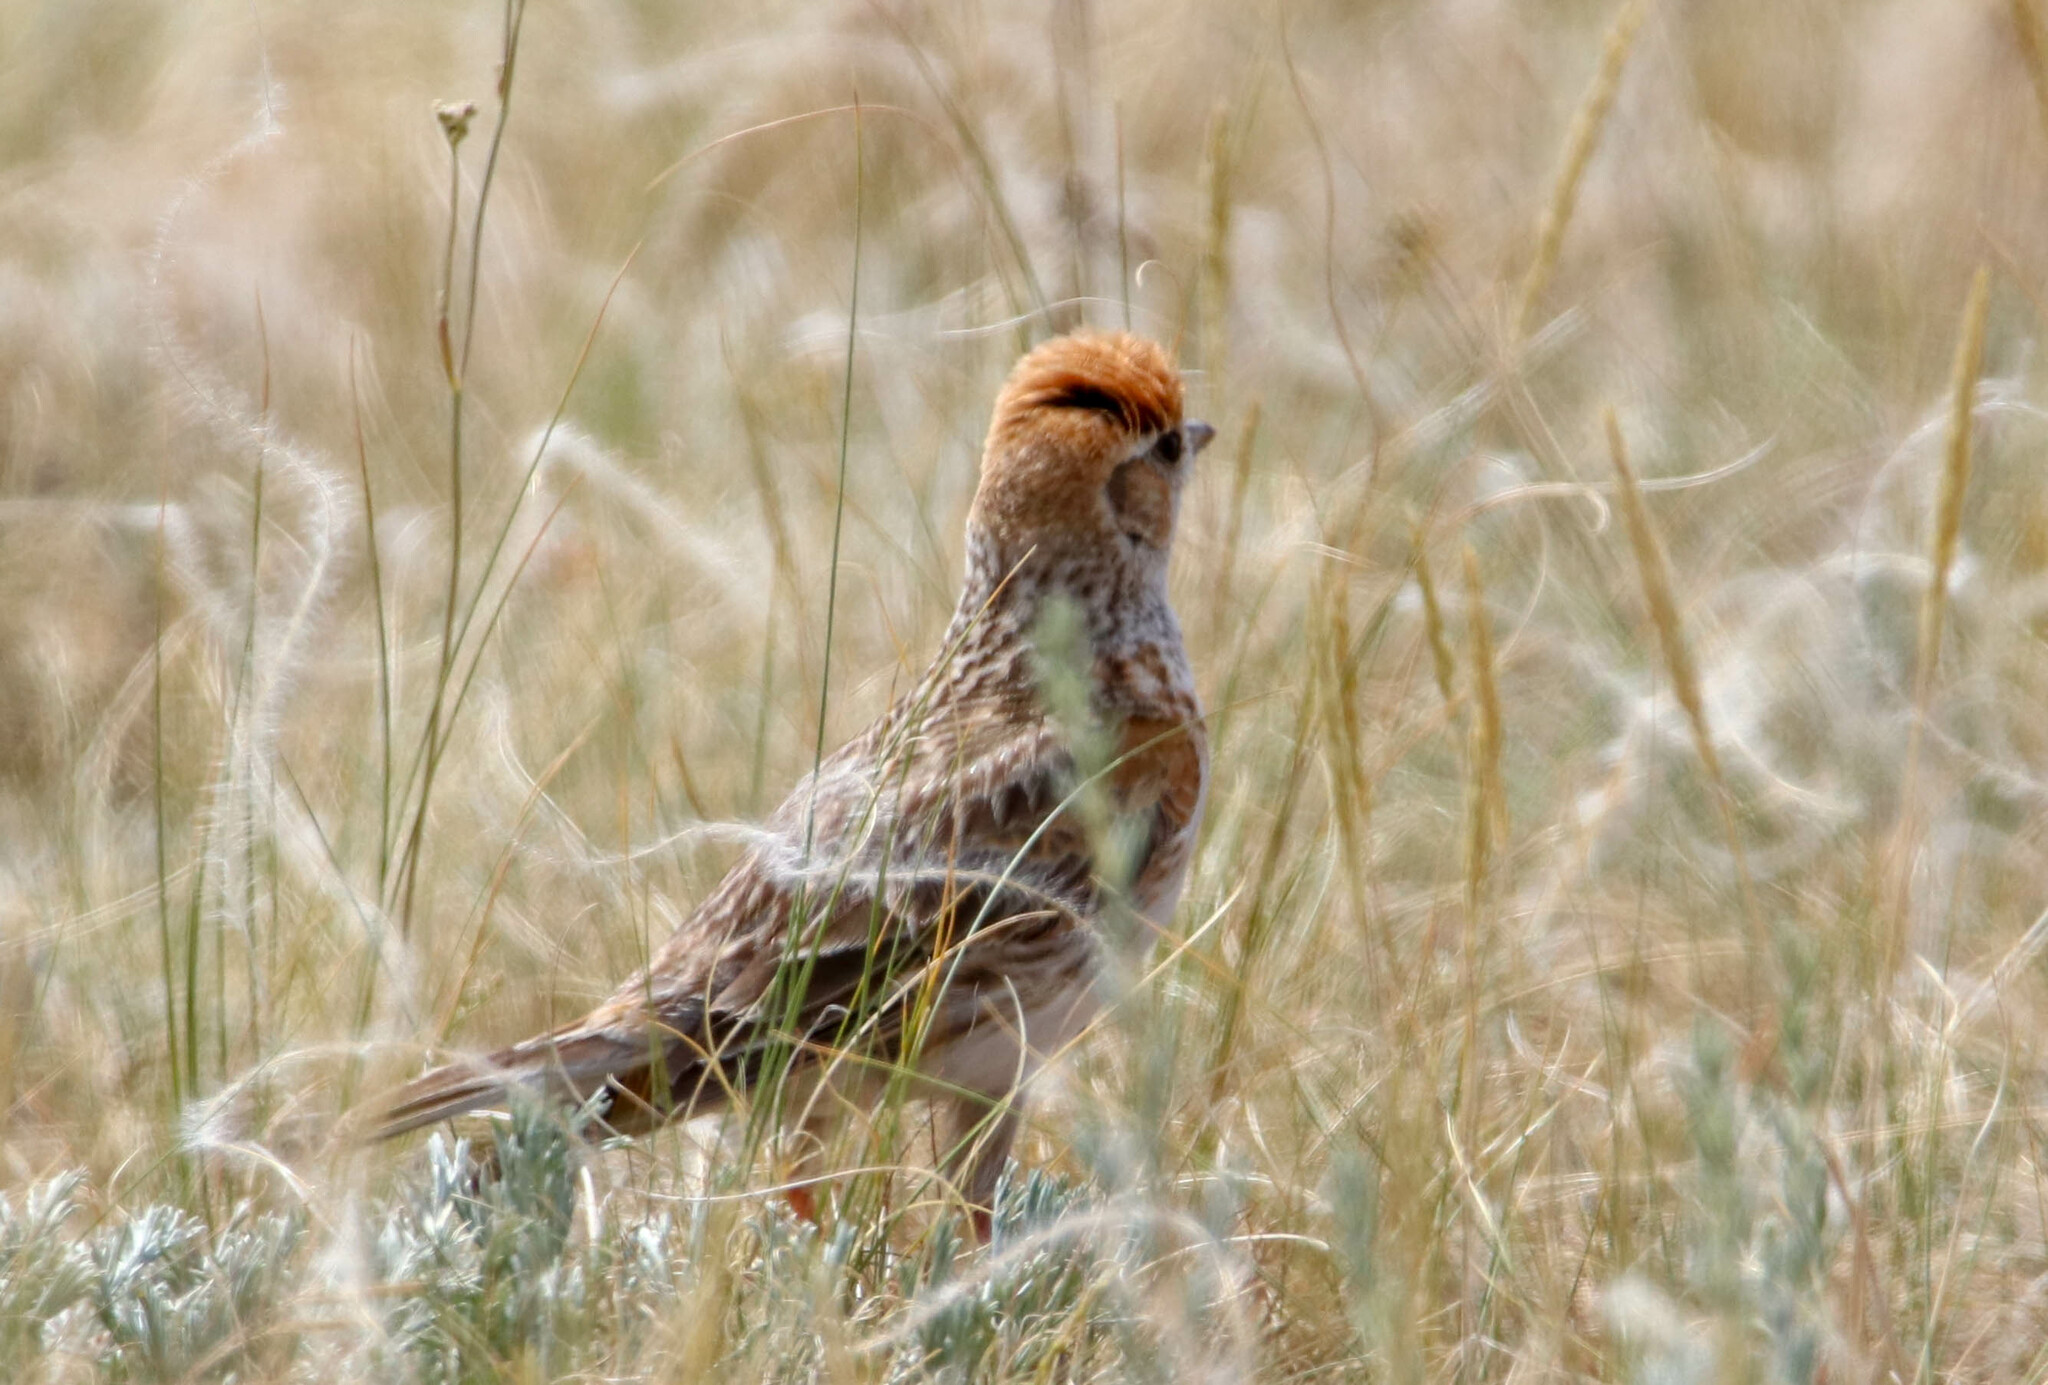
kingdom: Animalia
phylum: Chordata
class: Aves
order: Passeriformes
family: Alaudidae
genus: Melanocorypha
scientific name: Melanocorypha leucoptera
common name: White-winged lark
